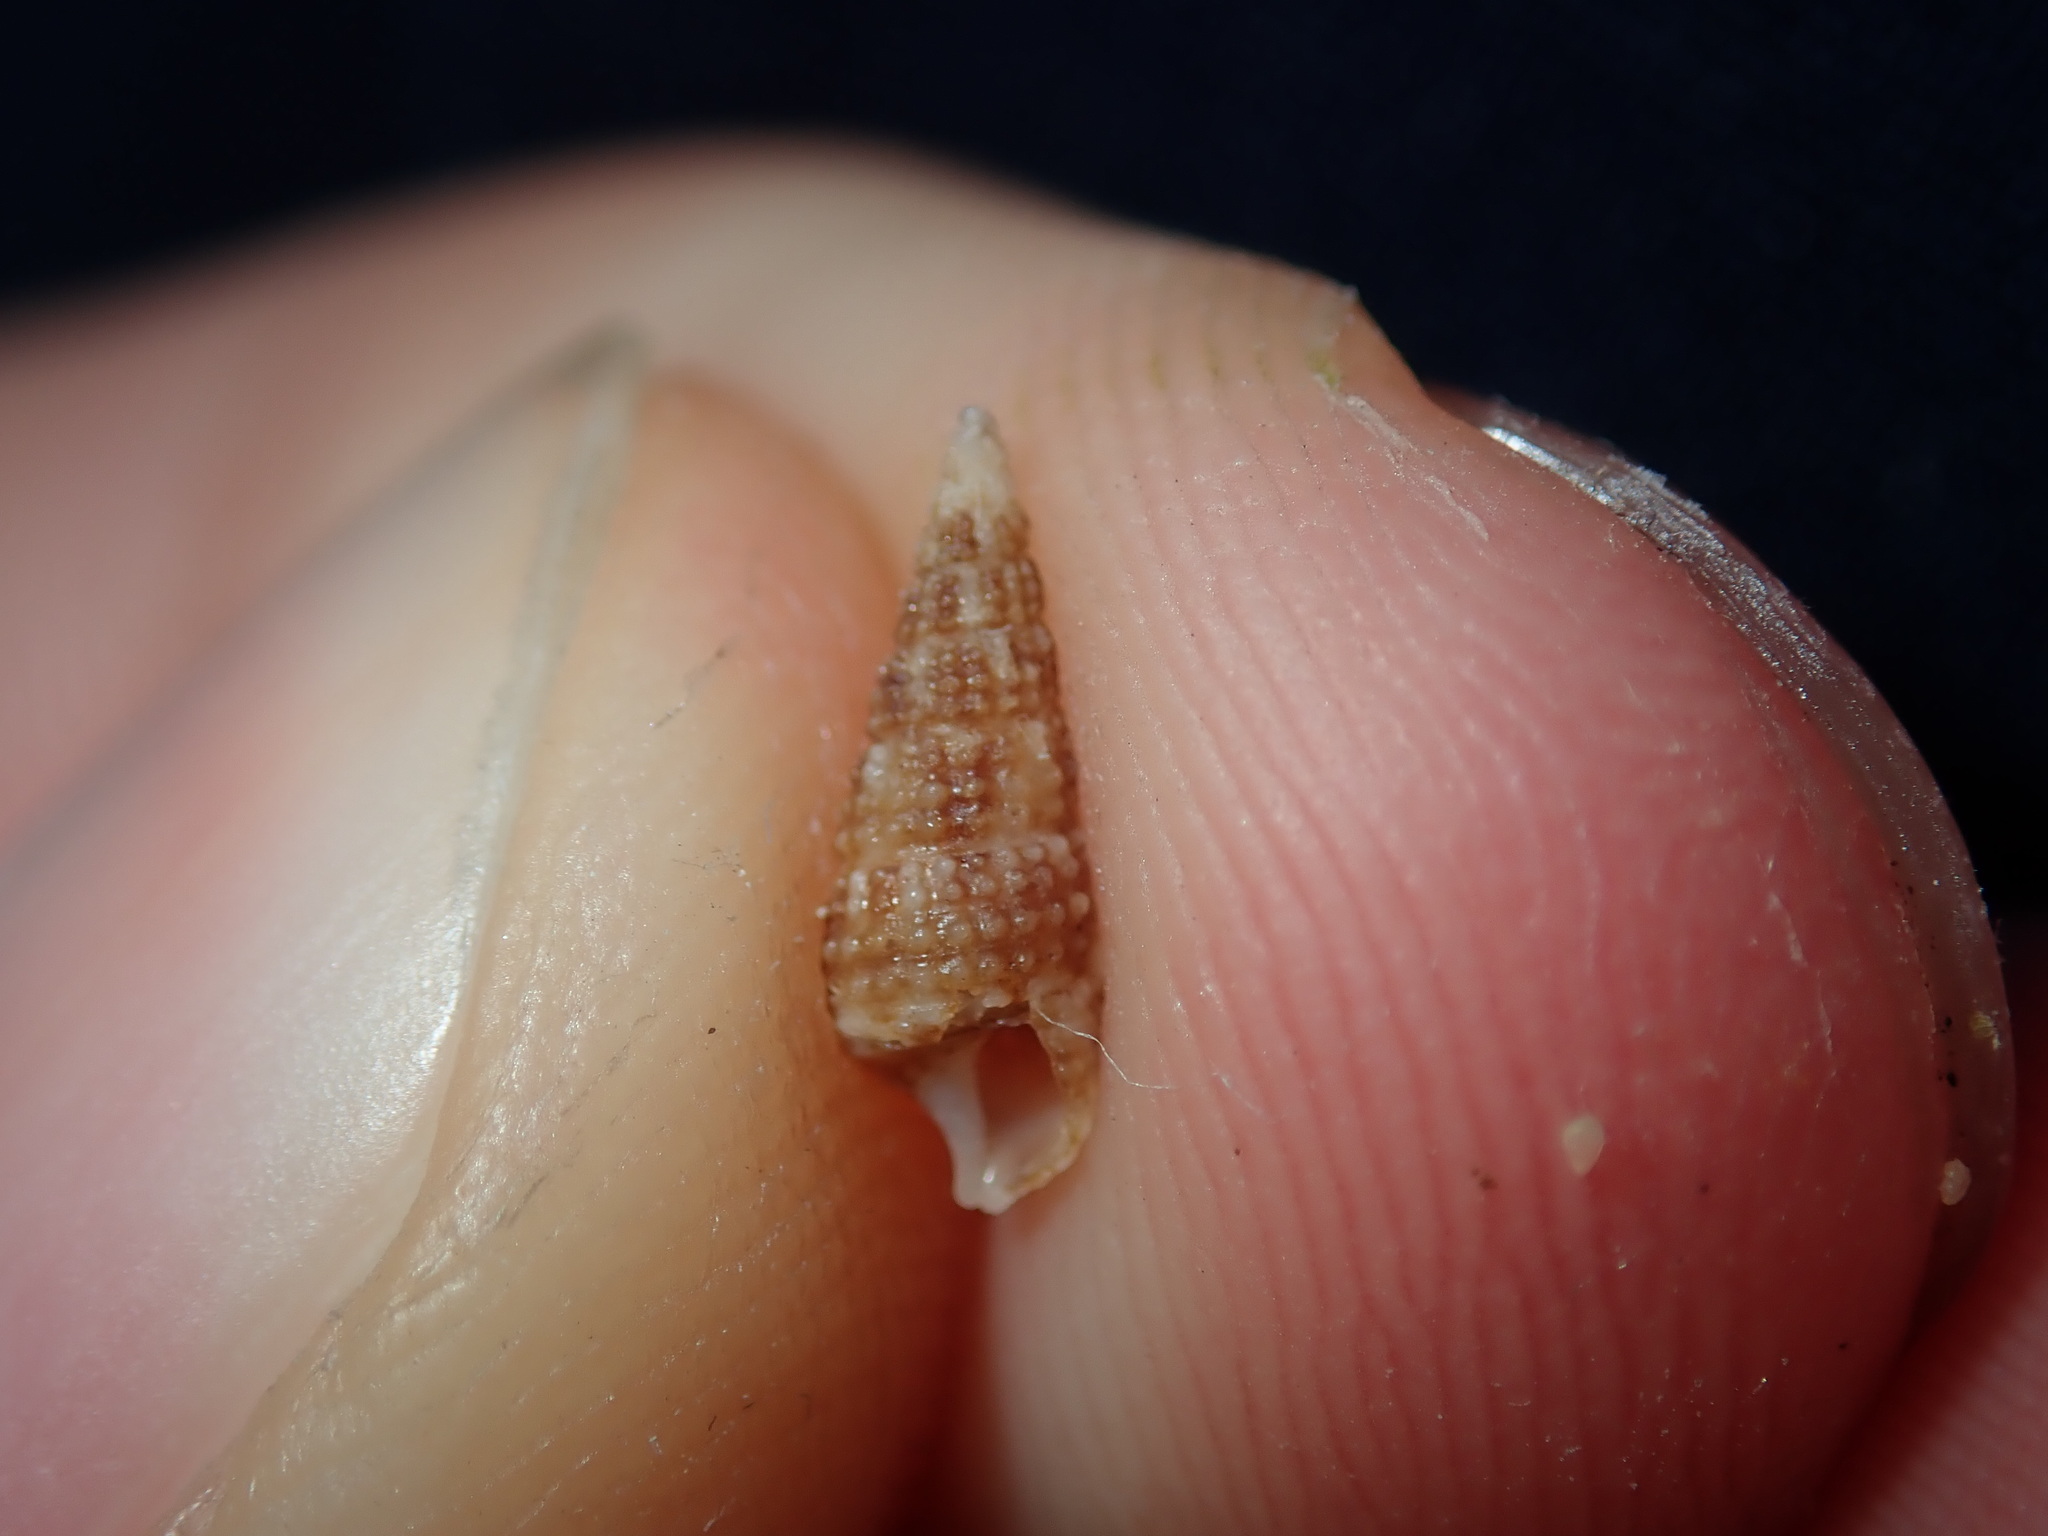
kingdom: Animalia
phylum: Mollusca
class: Gastropoda
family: Cerithiidae
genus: Cacozeliana
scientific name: Cacozeliana granarium
